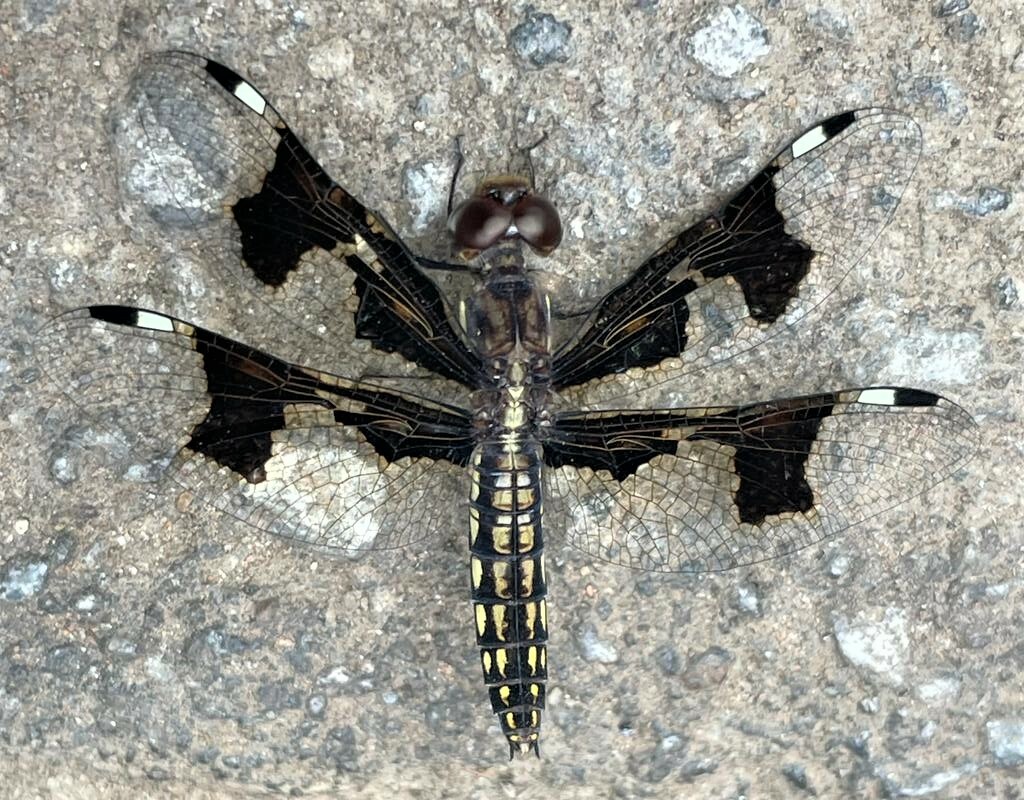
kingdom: Animalia
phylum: Arthropoda
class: Insecta
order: Odonata
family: Libellulidae
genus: Palpopleura
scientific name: Palpopleura portia
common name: Portia widow
